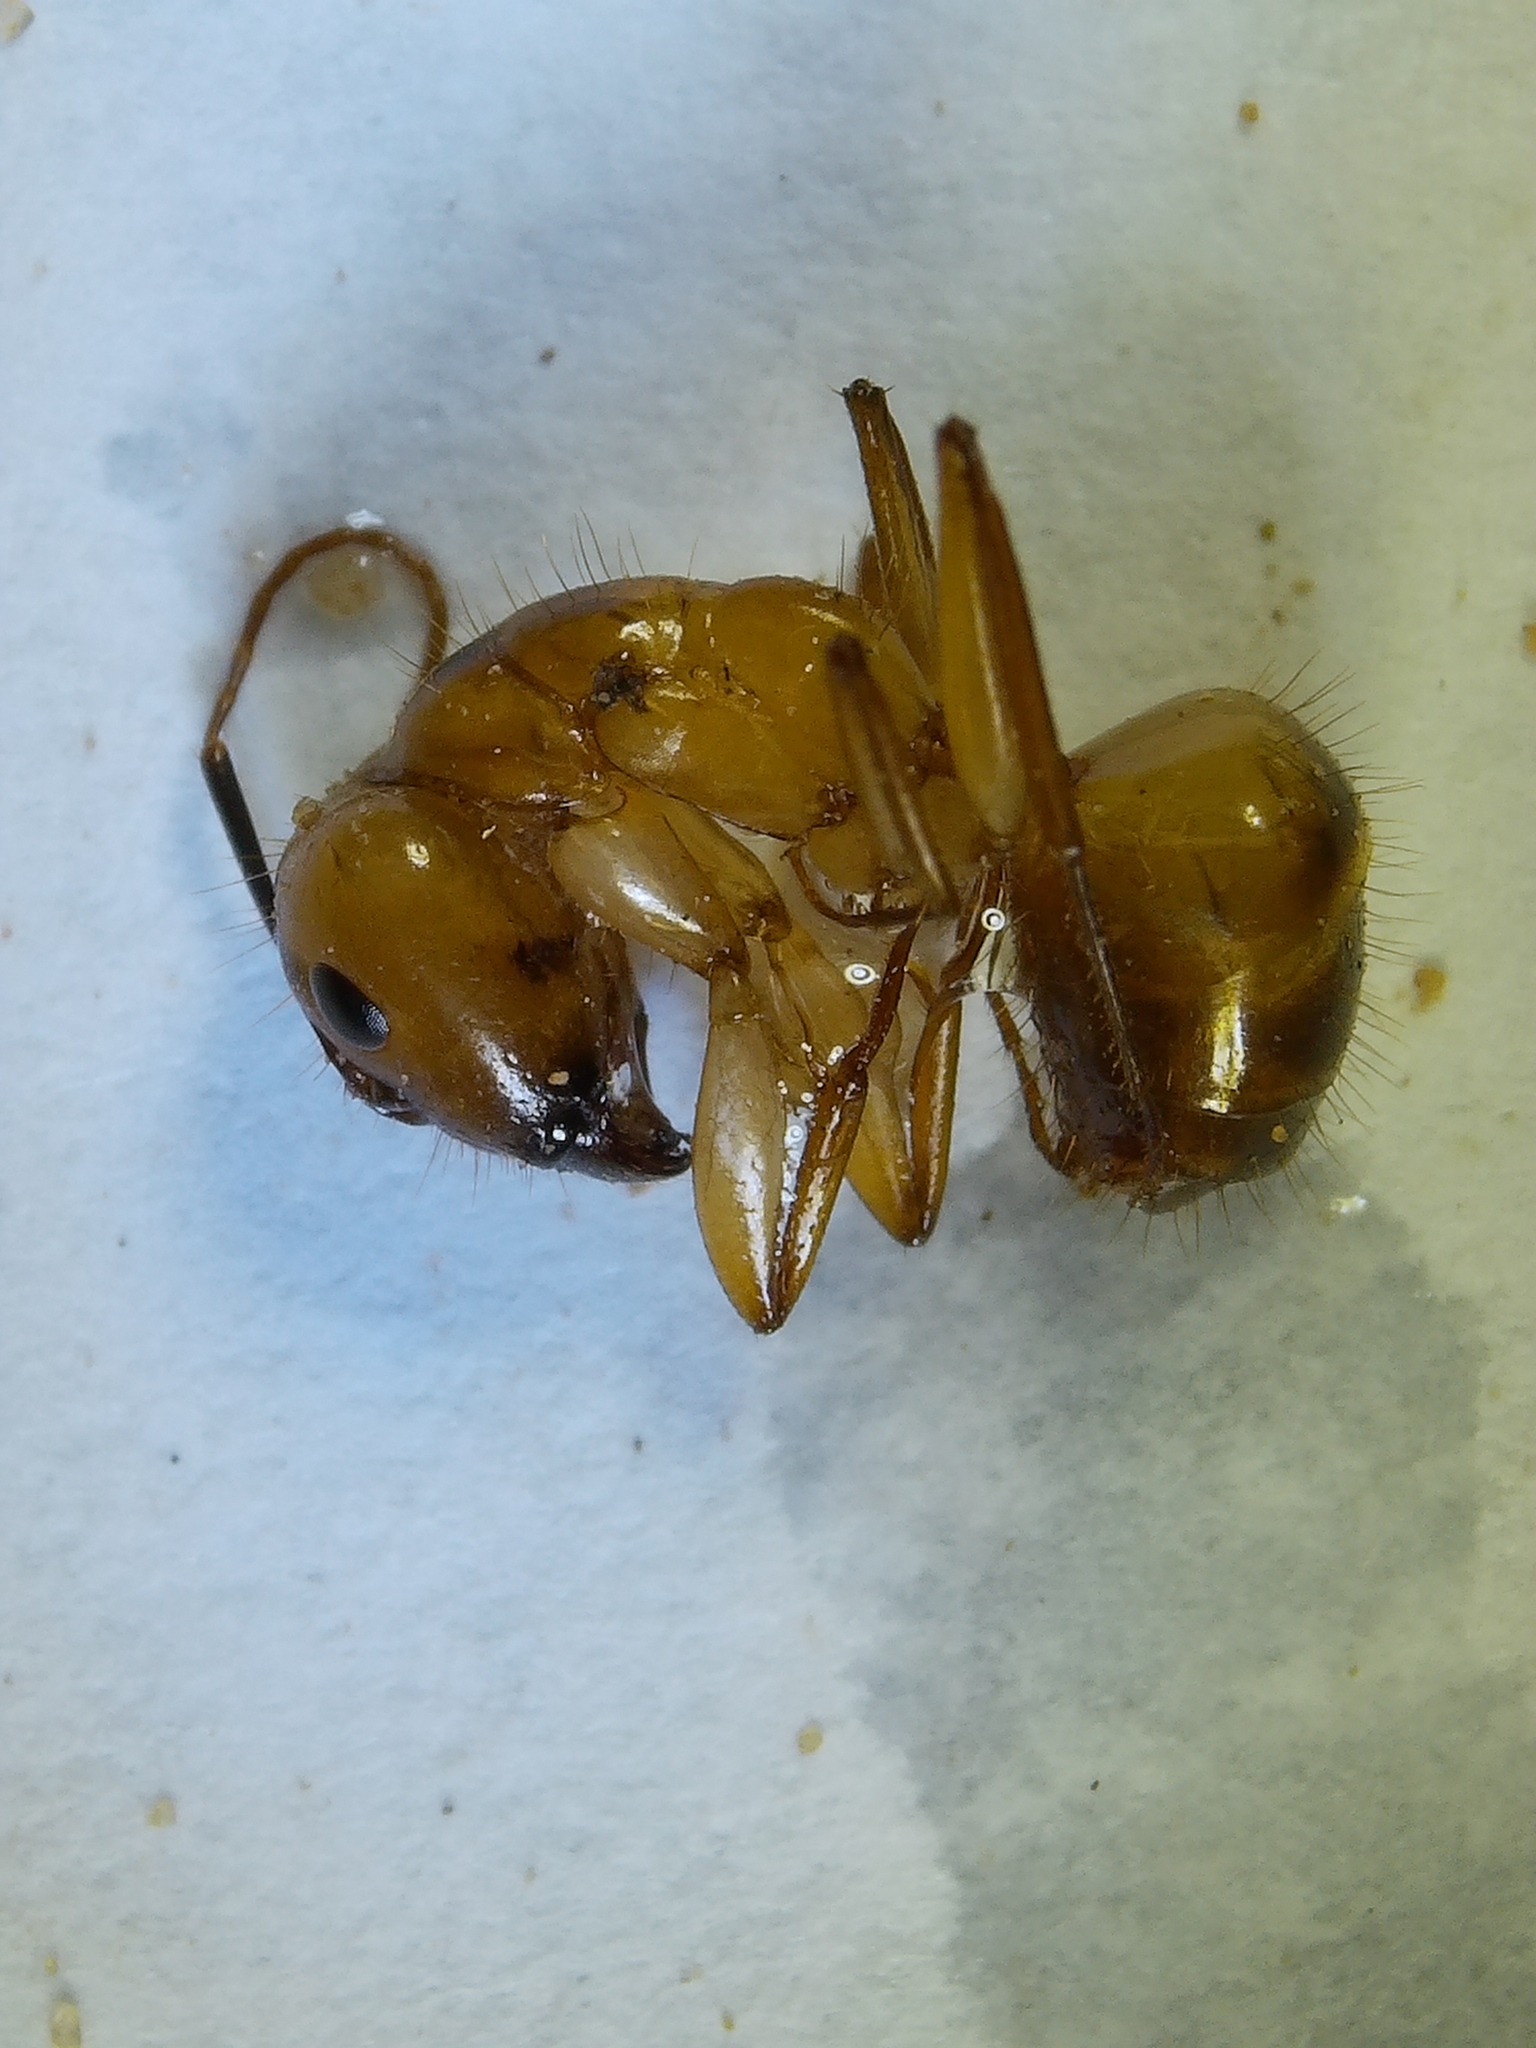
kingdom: Animalia
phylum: Arthropoda
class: Insecta
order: Hymenoptera
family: Formicidae
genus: Camponotus
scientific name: Camponotus
